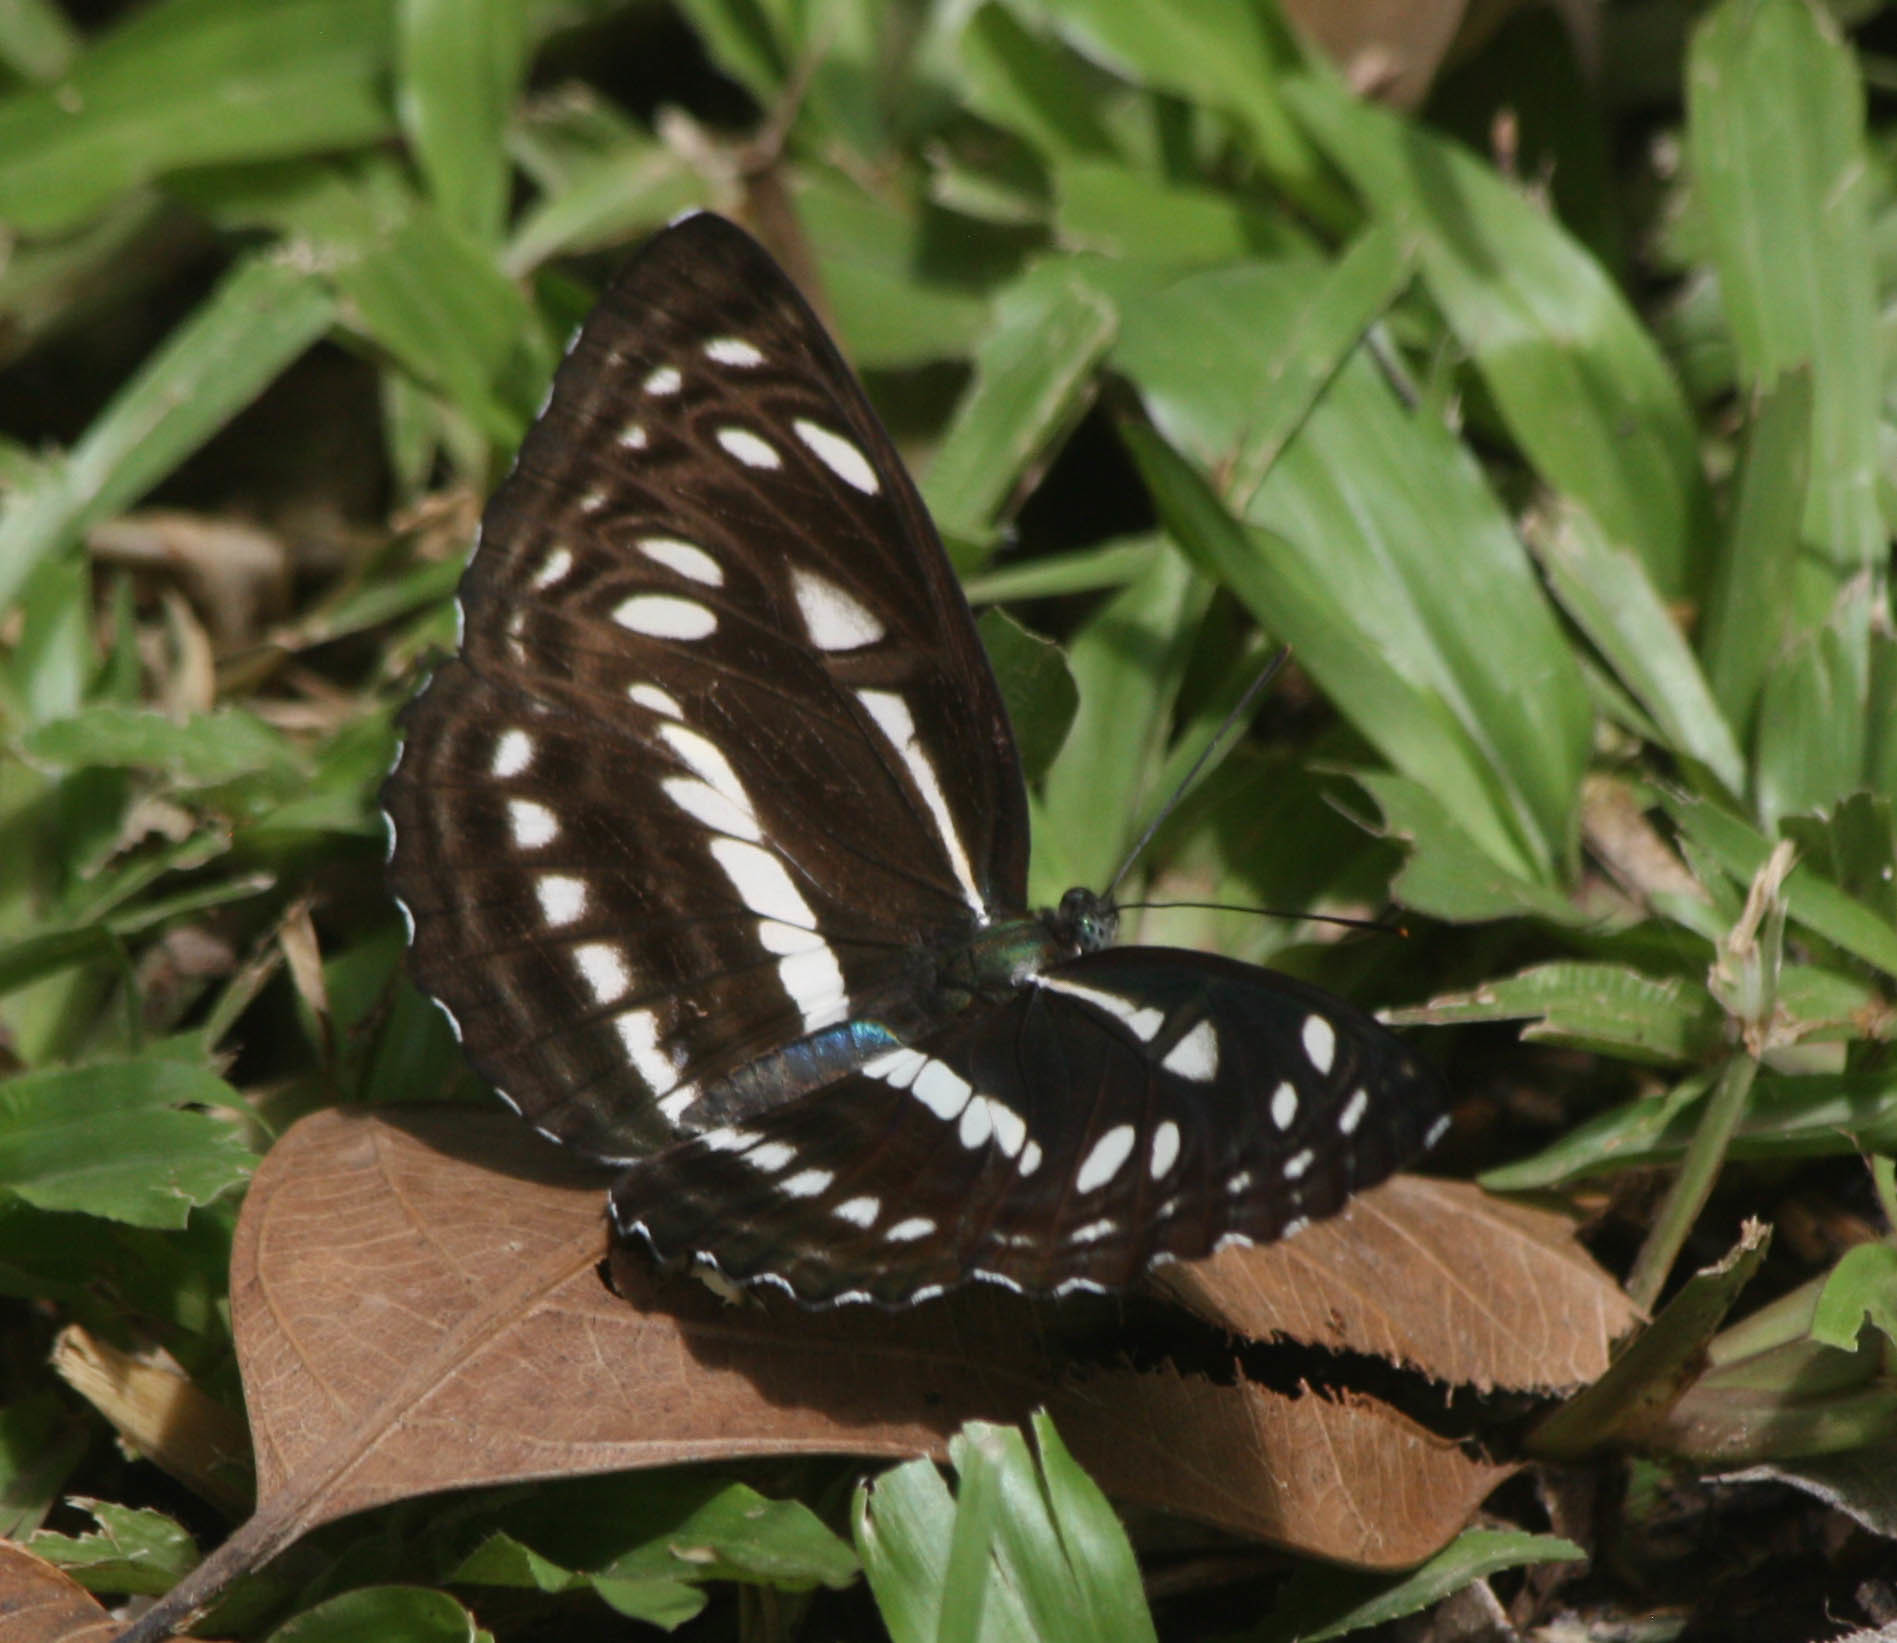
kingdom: Animalia
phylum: Arthropoda
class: Insecta
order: Lepidoptera
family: Nymphalidae
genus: Phaedyma
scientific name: Phaedyma columella
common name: Short banded sailer
